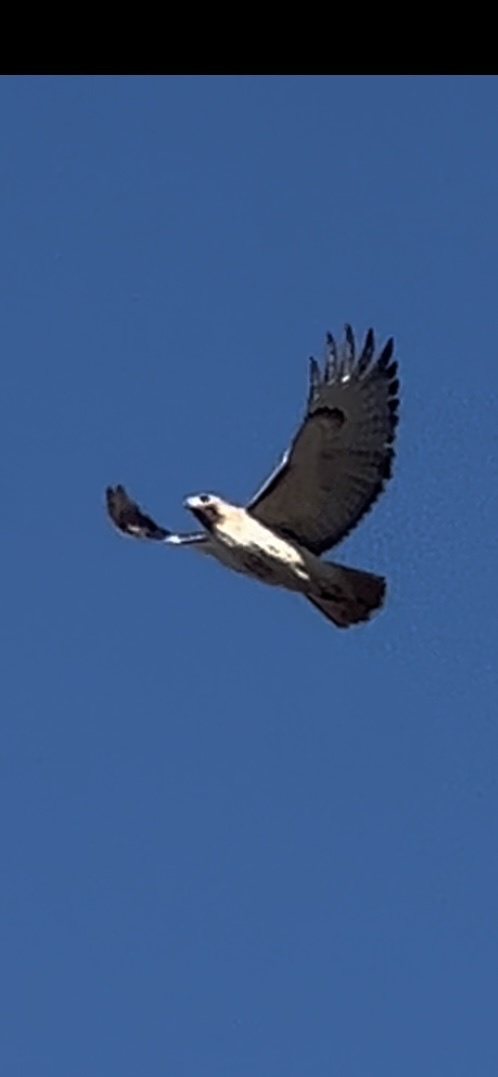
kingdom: Animalia
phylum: Chordata
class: Aves
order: Accipitriformes
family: Accipitridae
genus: Buteo
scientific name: Buteo jamaicensis
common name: Red-tailed hawk
